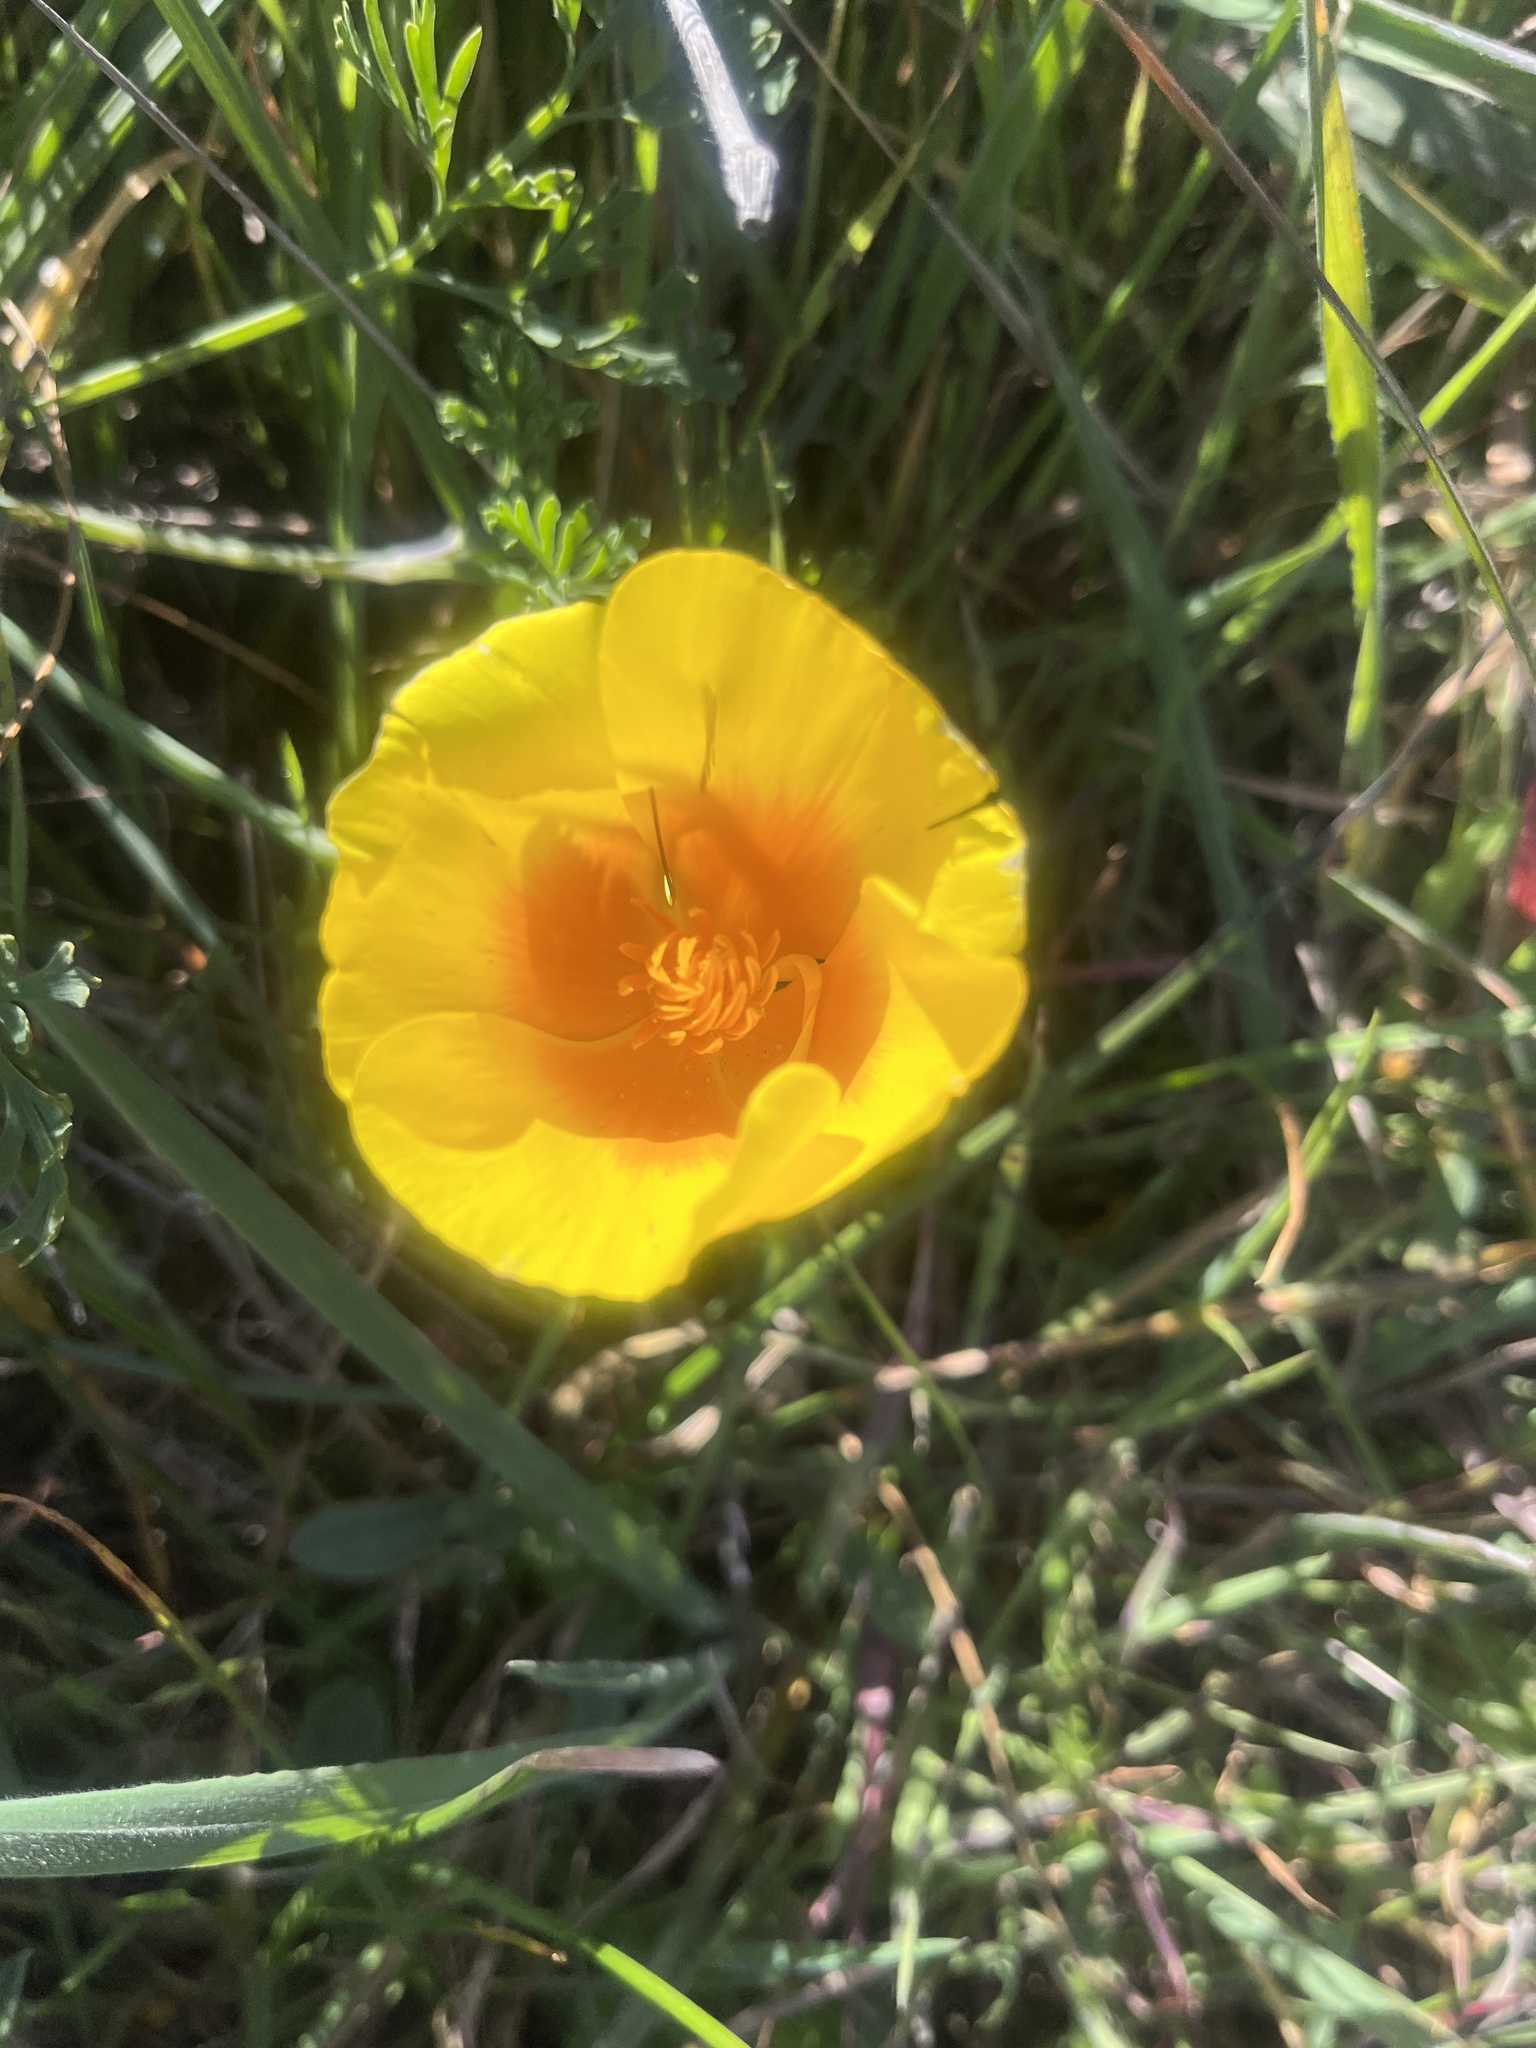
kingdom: Plantae
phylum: Tracheophyta
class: Magnoliopsida
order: Ranunculales
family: Papaveraceae
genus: Eschscholzia
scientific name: Eschscholzia californica
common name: California poppy
